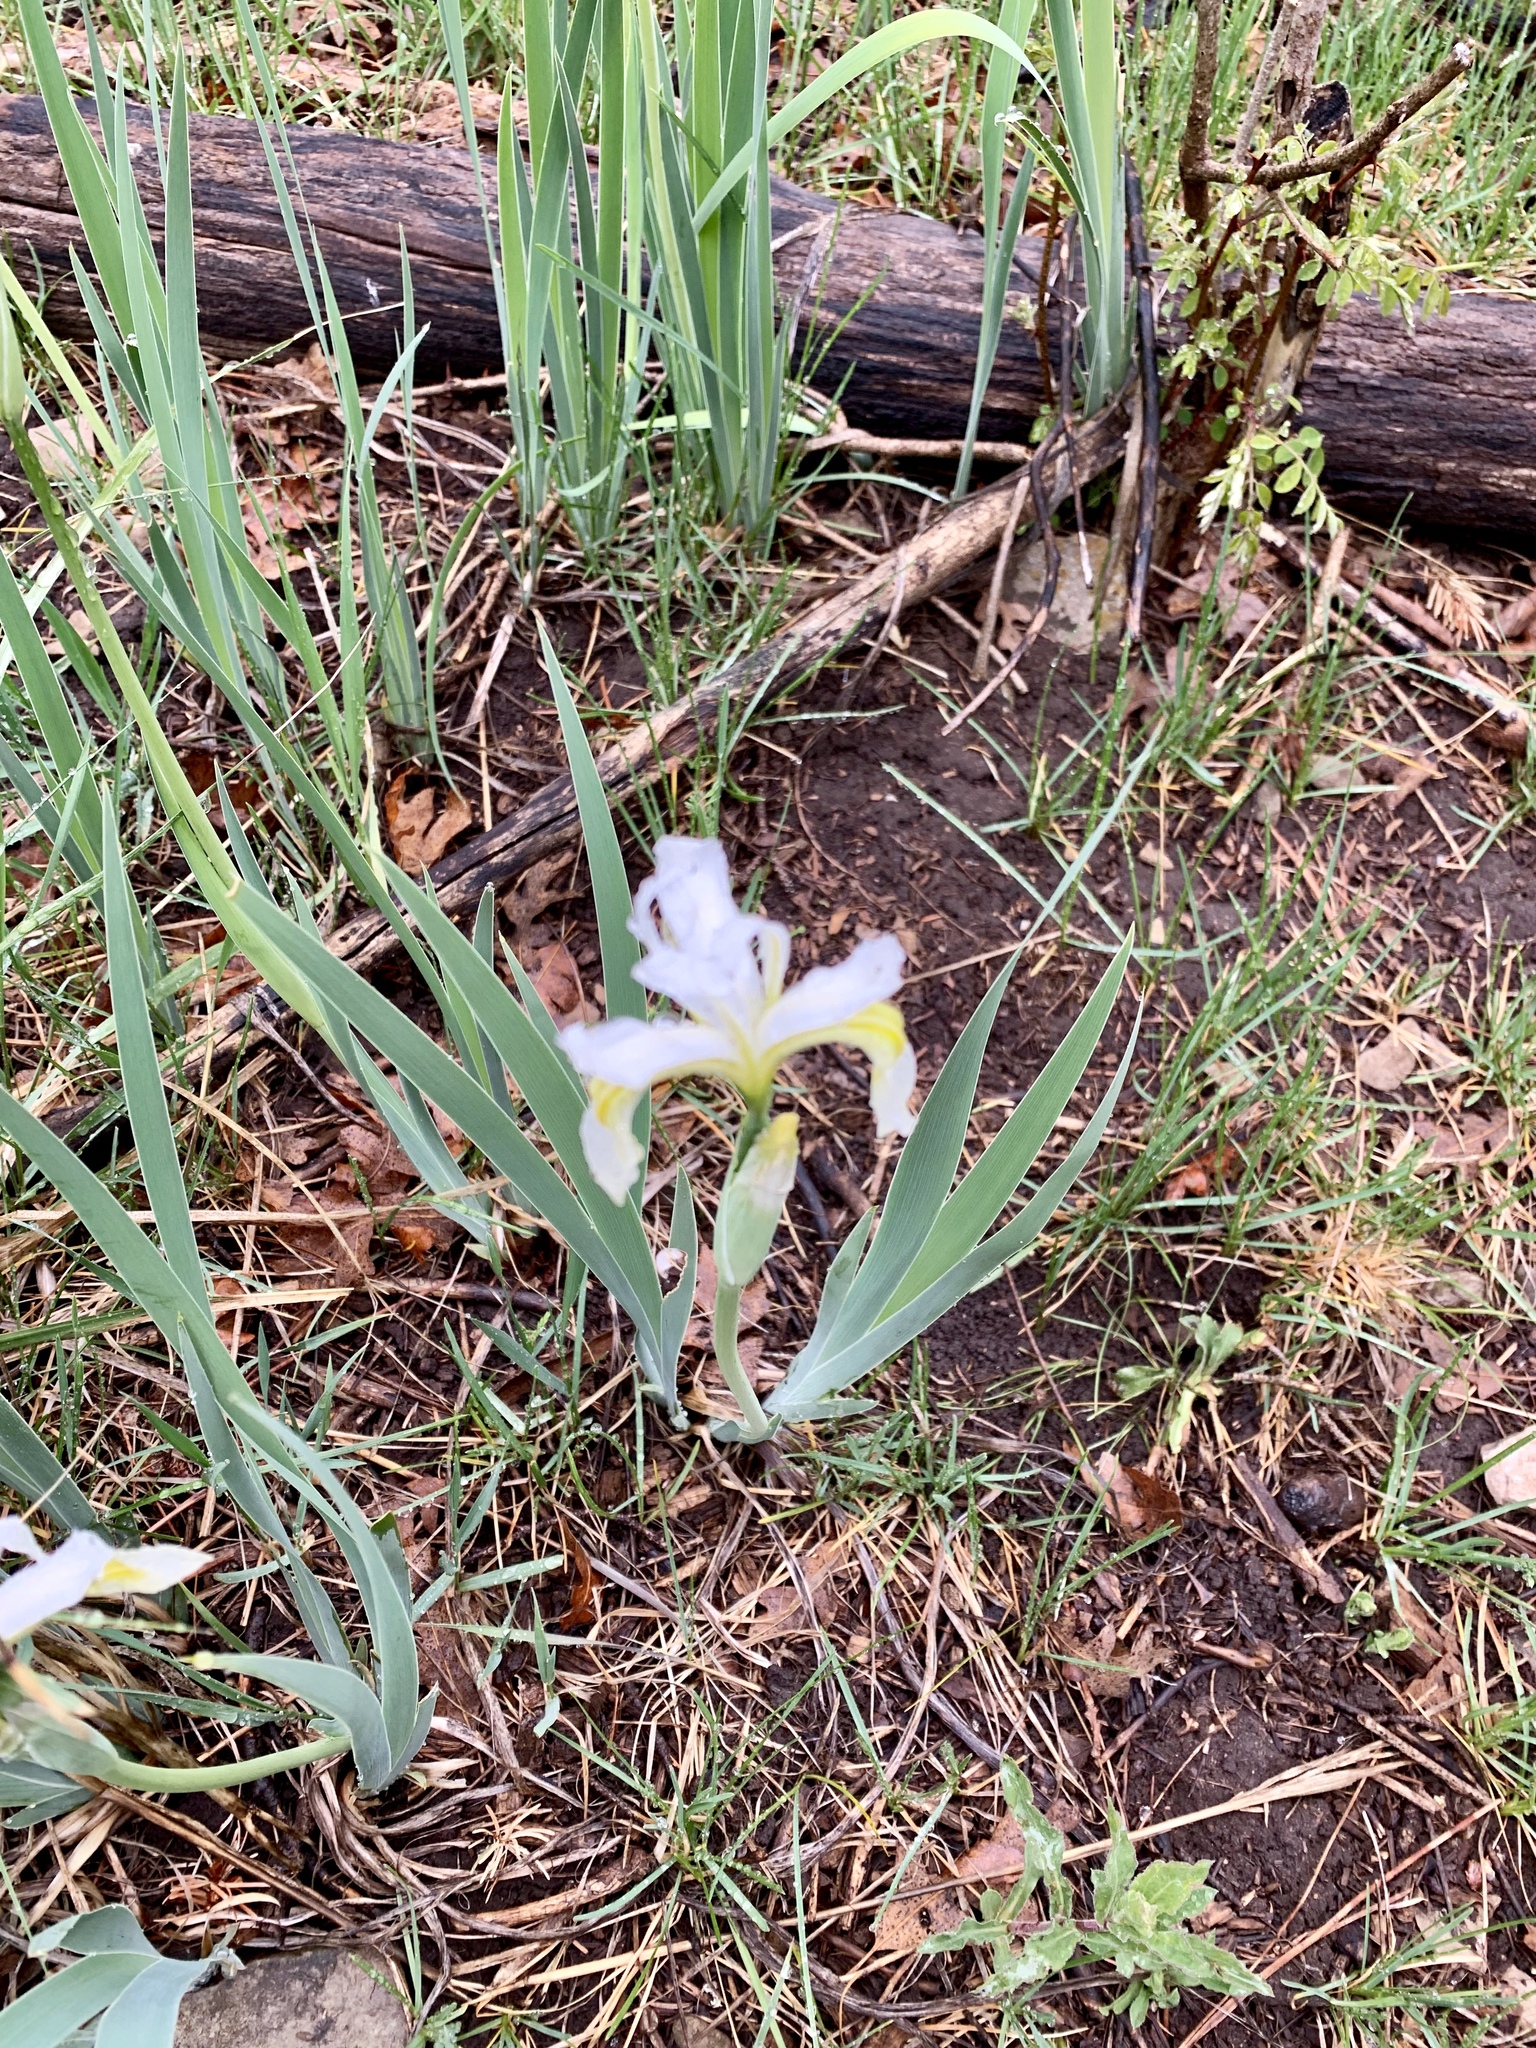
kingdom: Plantae
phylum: Tracheophyta
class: Liliopsida
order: Asparagales
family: Iridaceae
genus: Iris
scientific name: Iris missouriensis
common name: Rocky mountain iris
